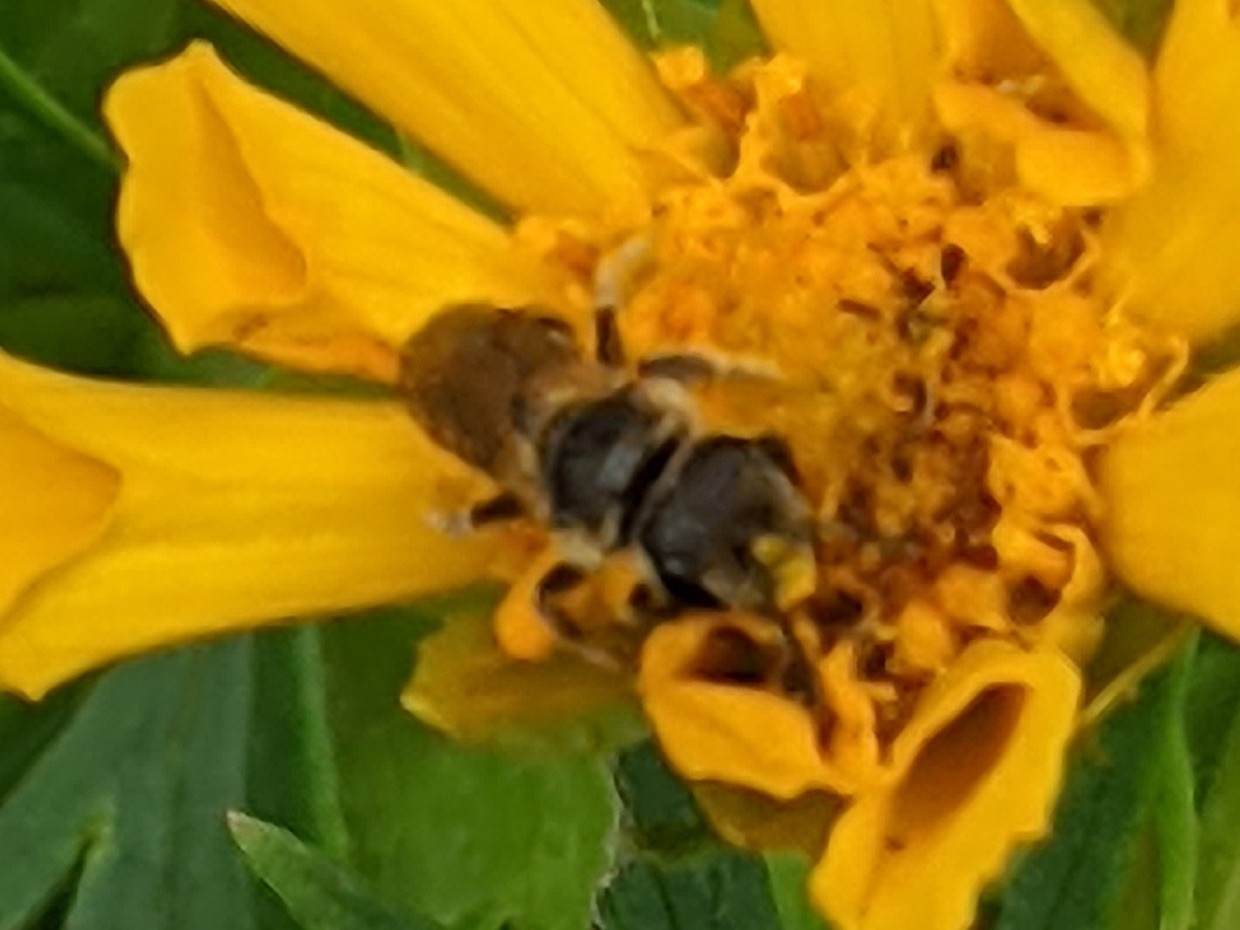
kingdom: Animalia
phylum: Arthropoda
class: Insecta
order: Hymenoptera
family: Halictidae
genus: Halictus
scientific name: Halictus ligatus
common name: Ligated furrow bee
